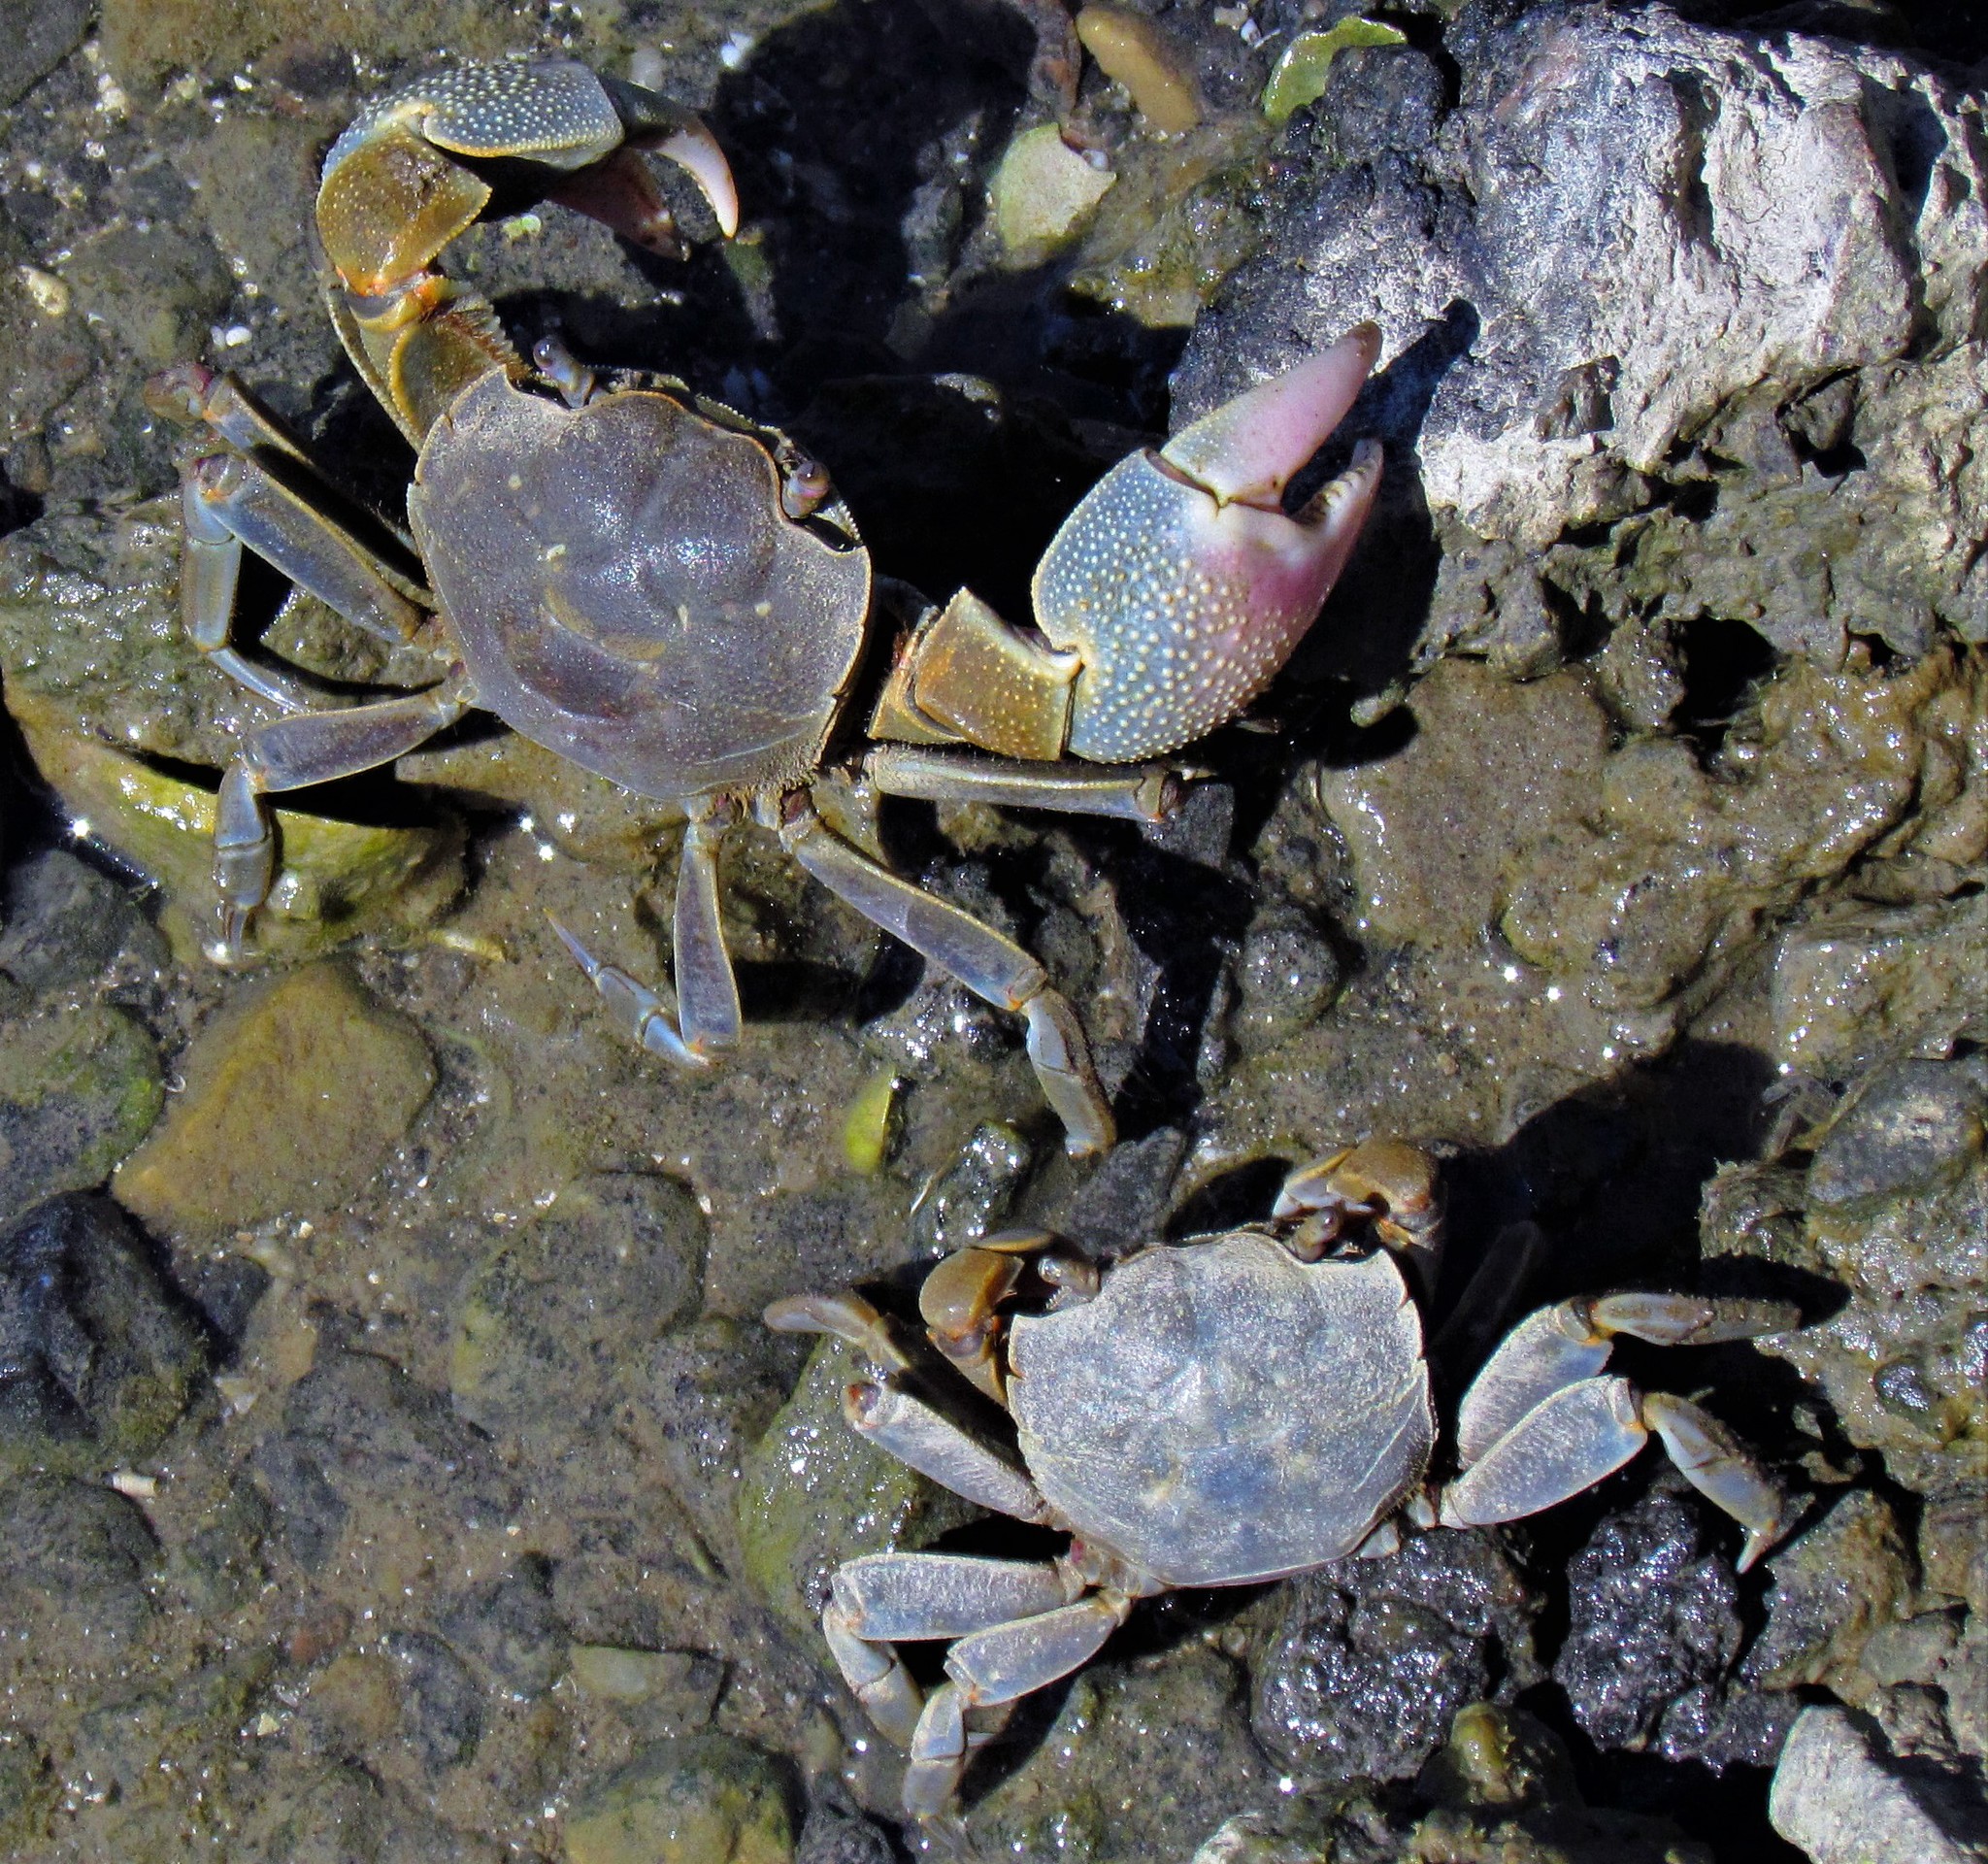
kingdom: Animalia
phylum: Arthropoda
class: Malacostraca
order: Decapoda
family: Varunidae
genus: Neohelice
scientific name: Neohelice granulata
